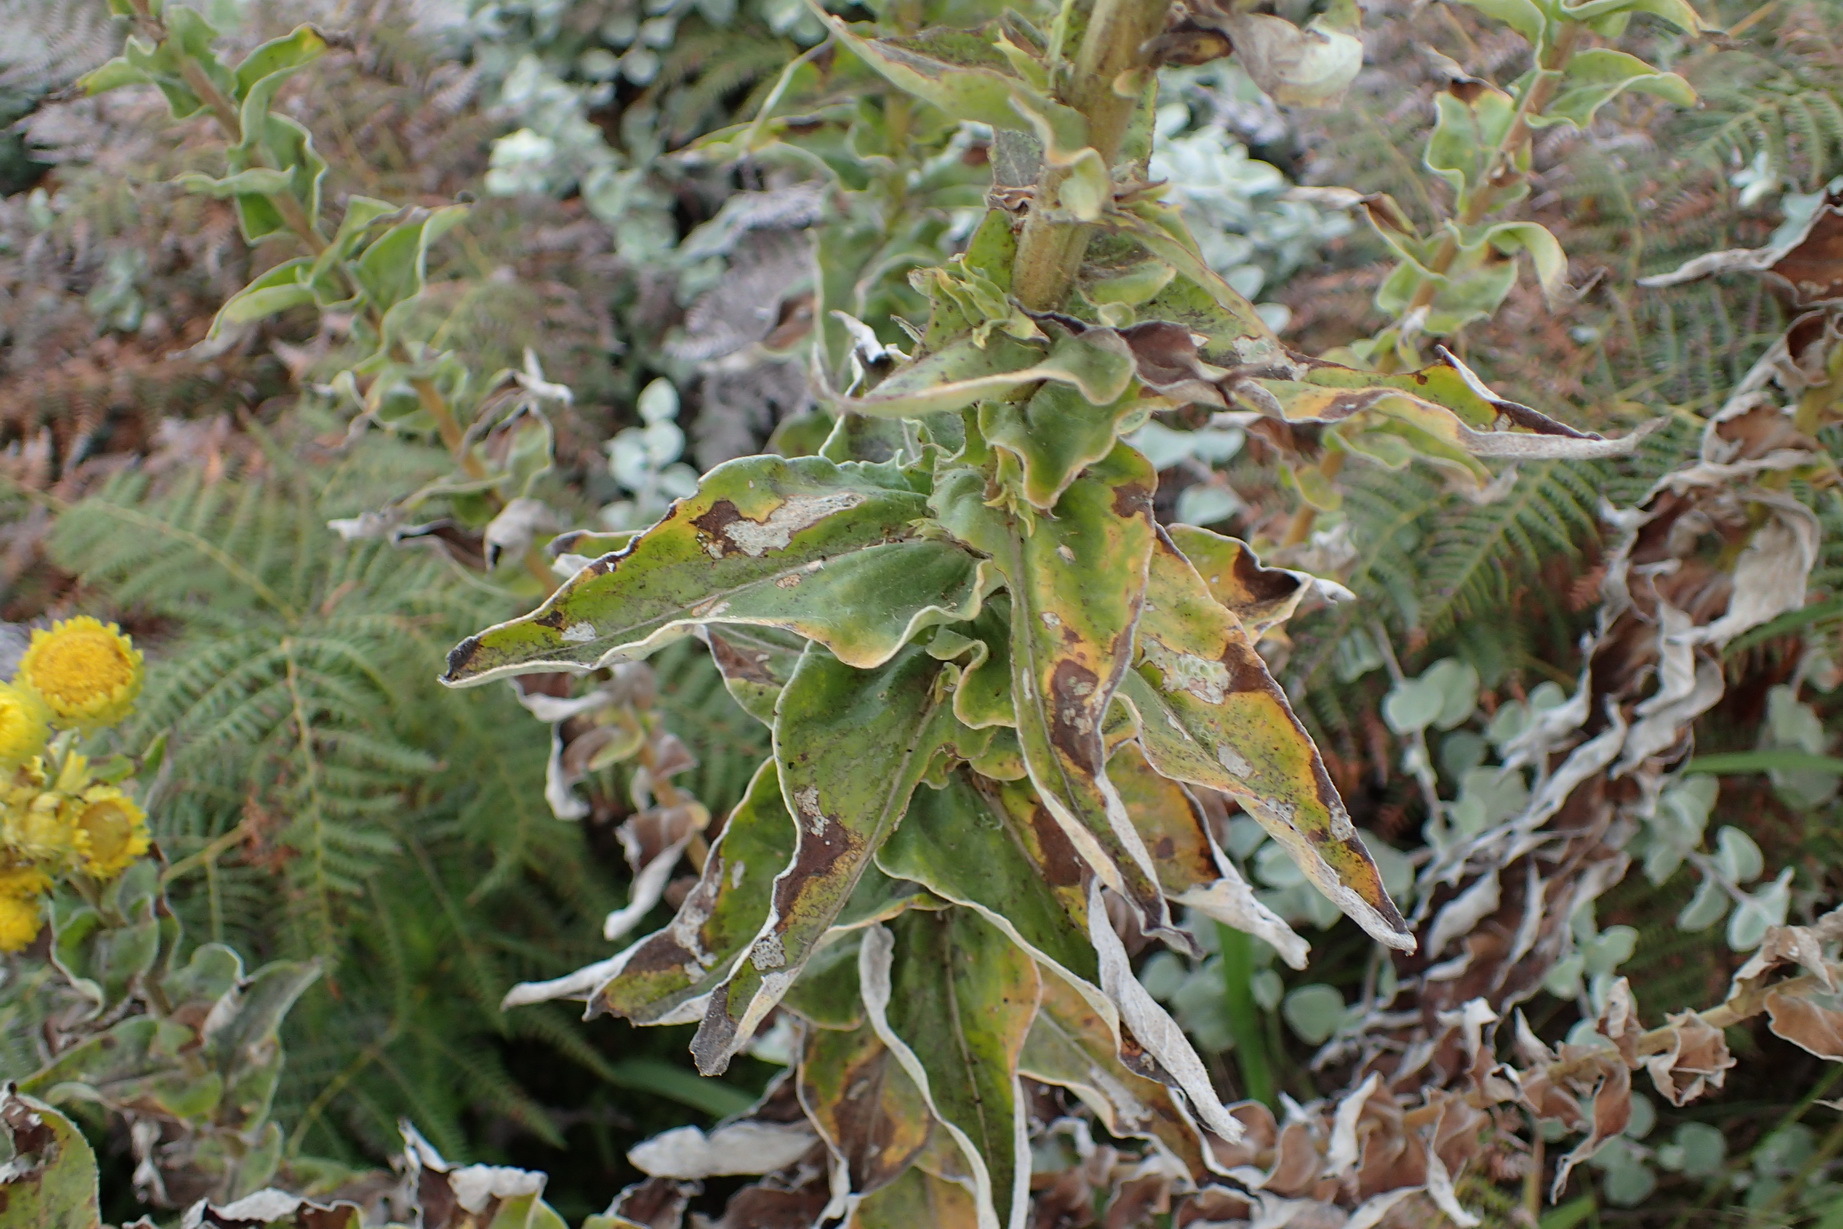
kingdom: Plantae
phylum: Tracheophyta
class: Magnoliopsida
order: Asterales
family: Asteraceae
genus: Helichrysum
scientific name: Helichrysum teretifolium
